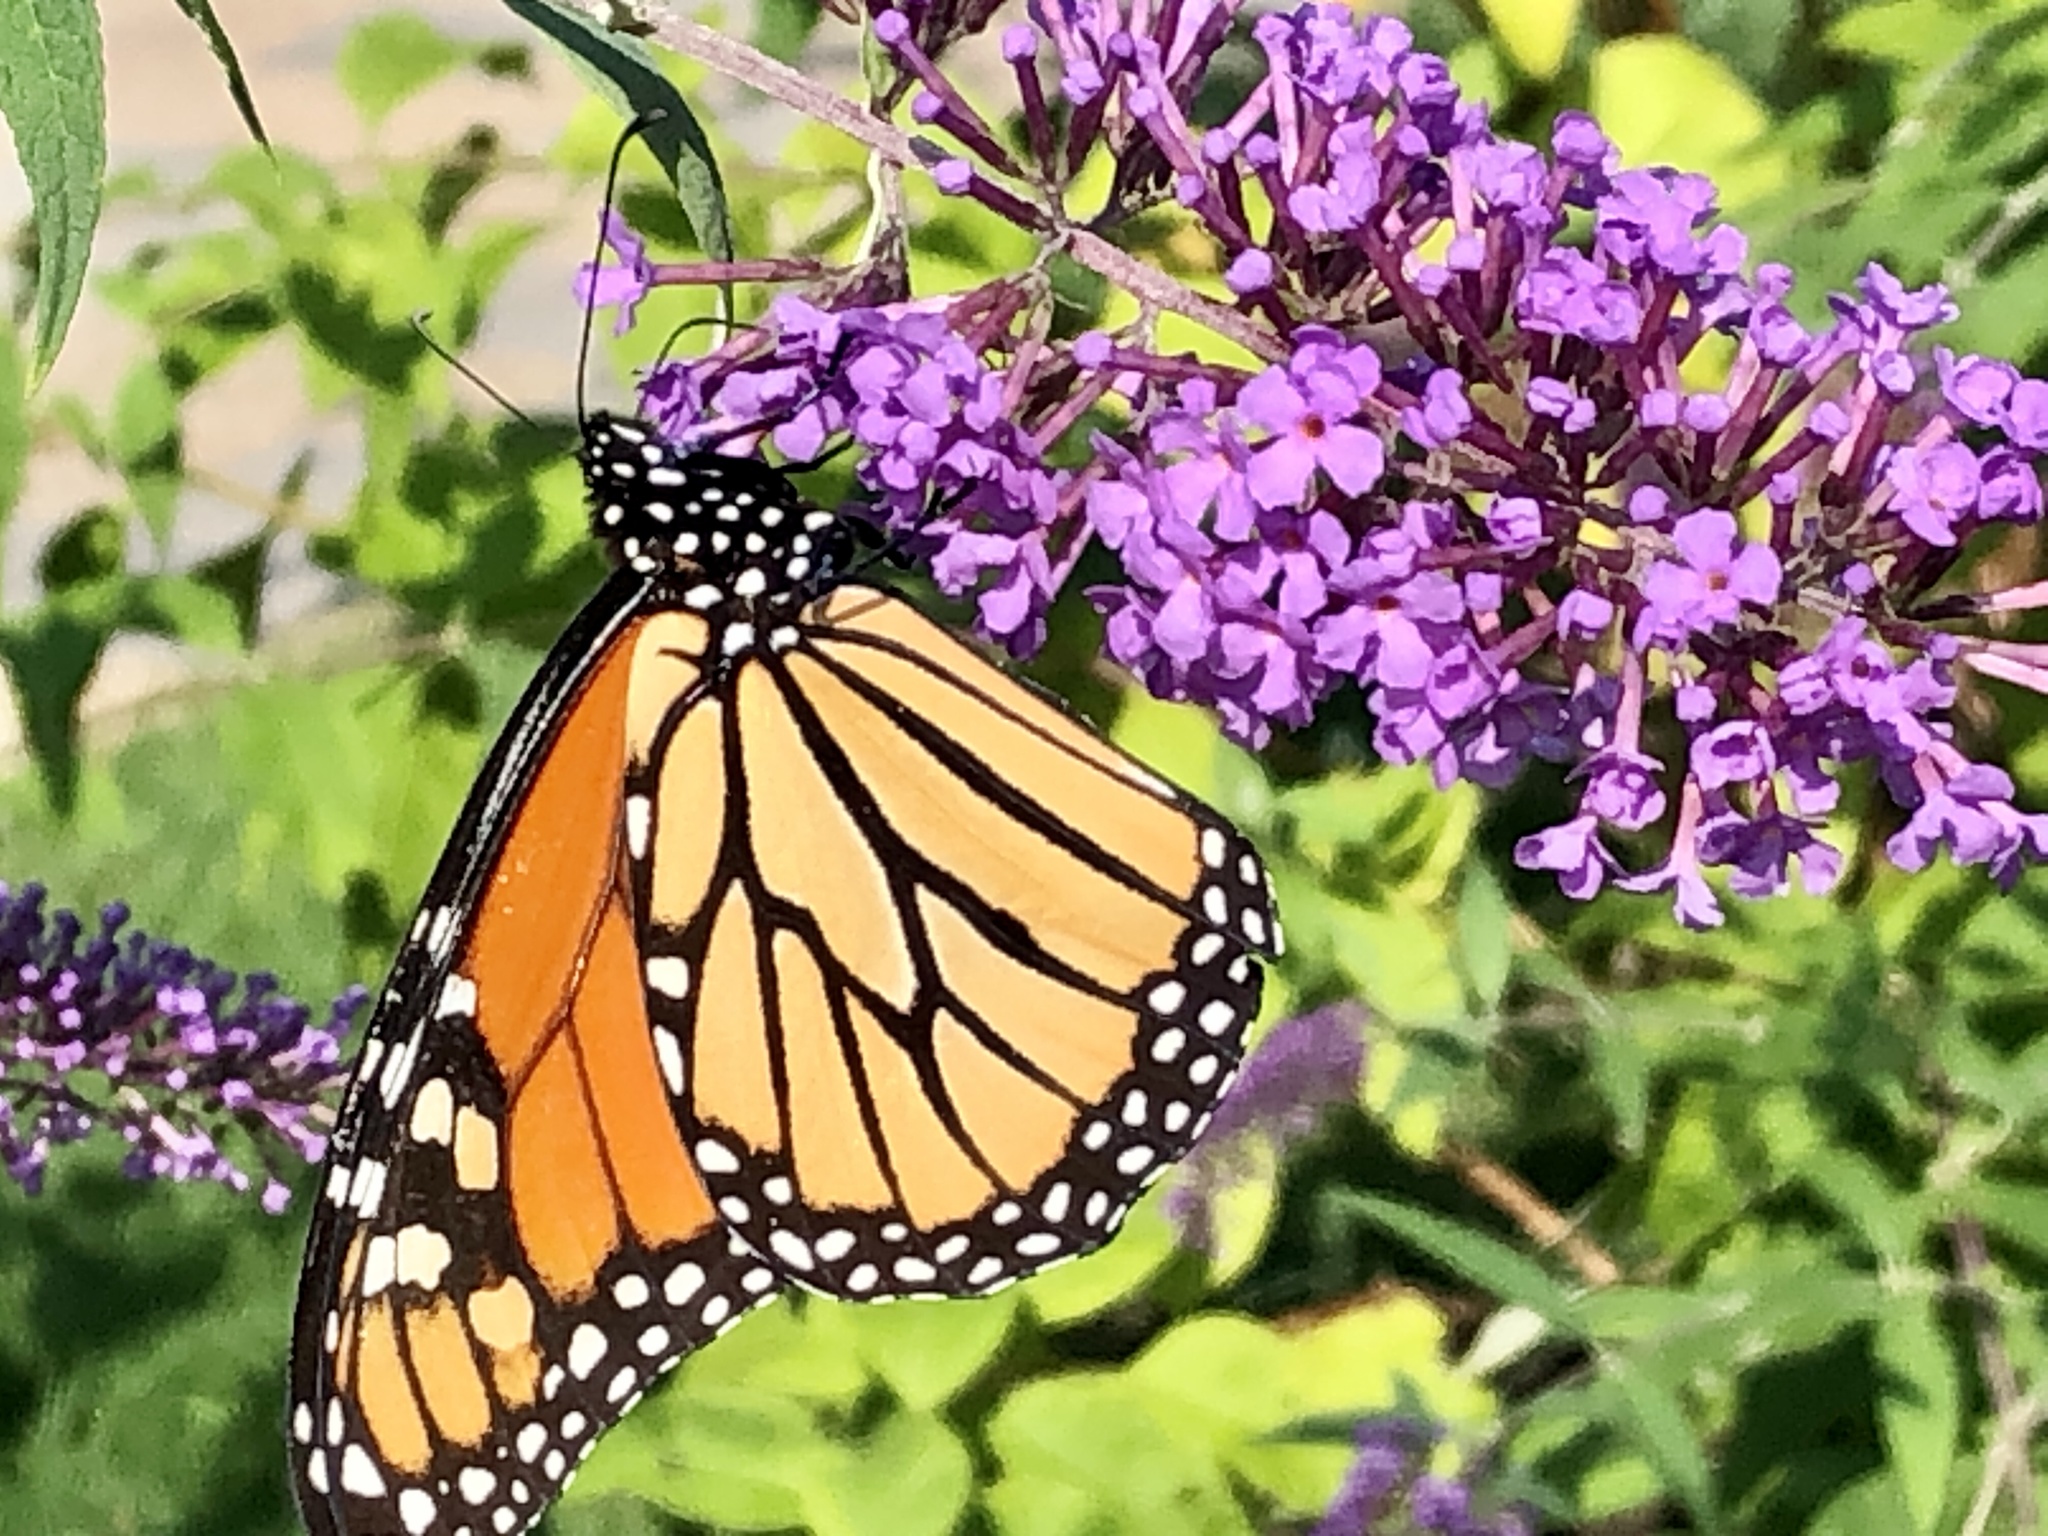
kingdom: Animalia
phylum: Arthropoda
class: Insecta
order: Lepidoptera
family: Nymphalidae
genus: Danaus
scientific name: Danaus plexippus
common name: Monarch
